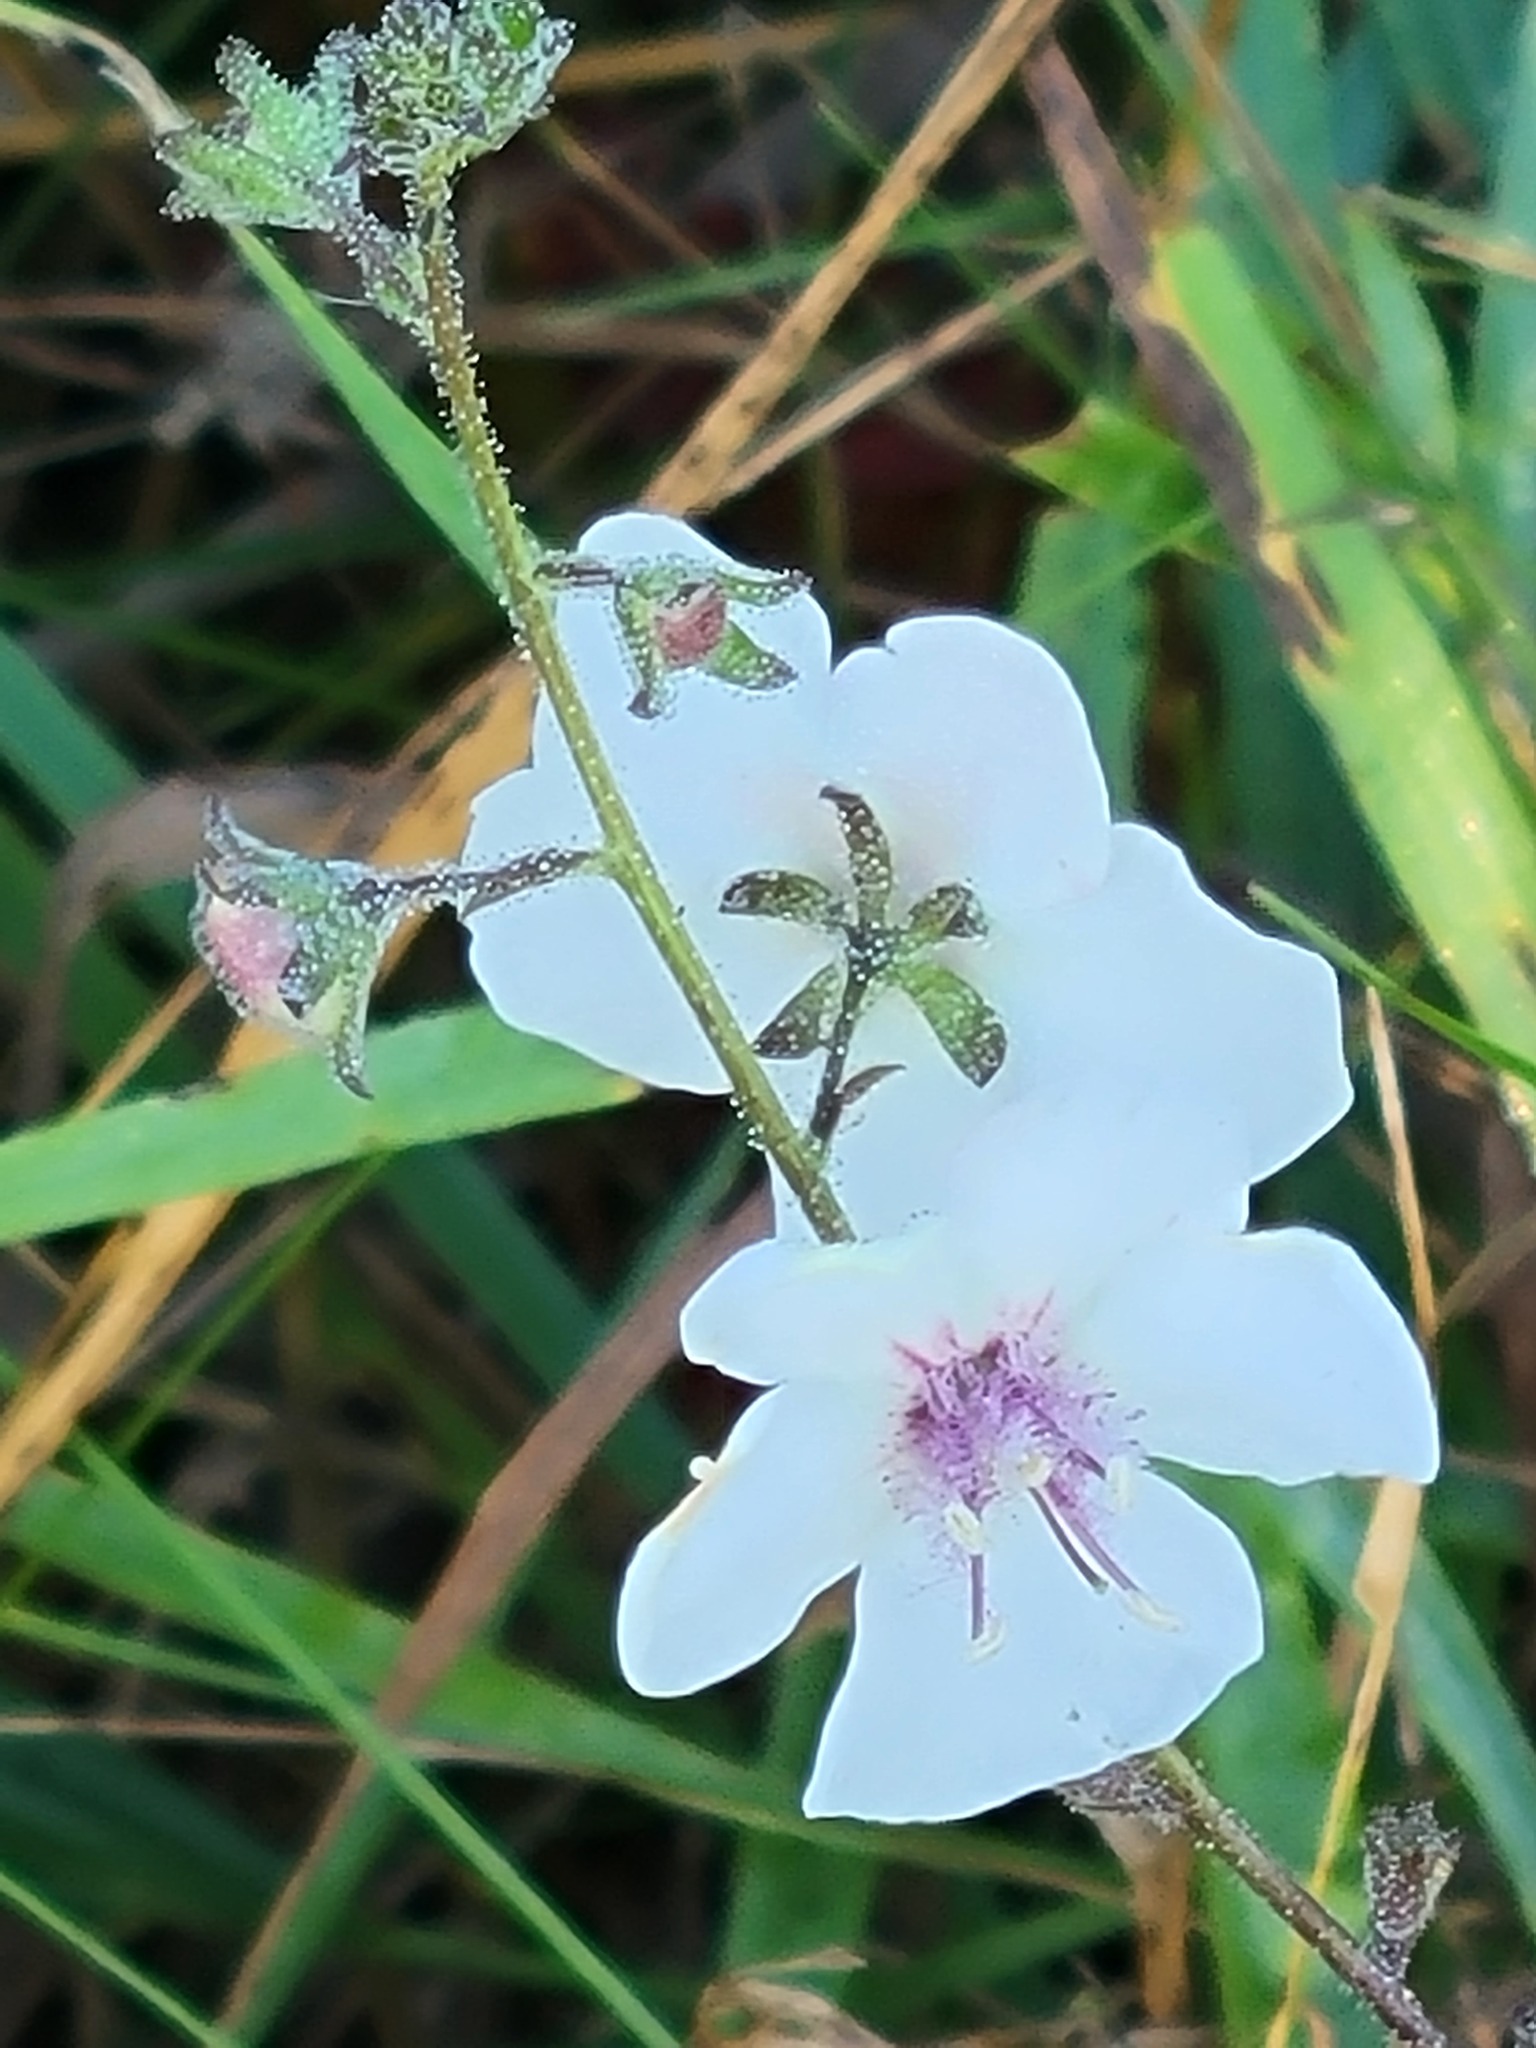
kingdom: Plantae
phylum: Tracheophyta
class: Magnoliopsida
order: Lamiales
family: Scrophulariaceae
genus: Verbascum
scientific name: Verbascum blattaria
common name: Moth mullein
